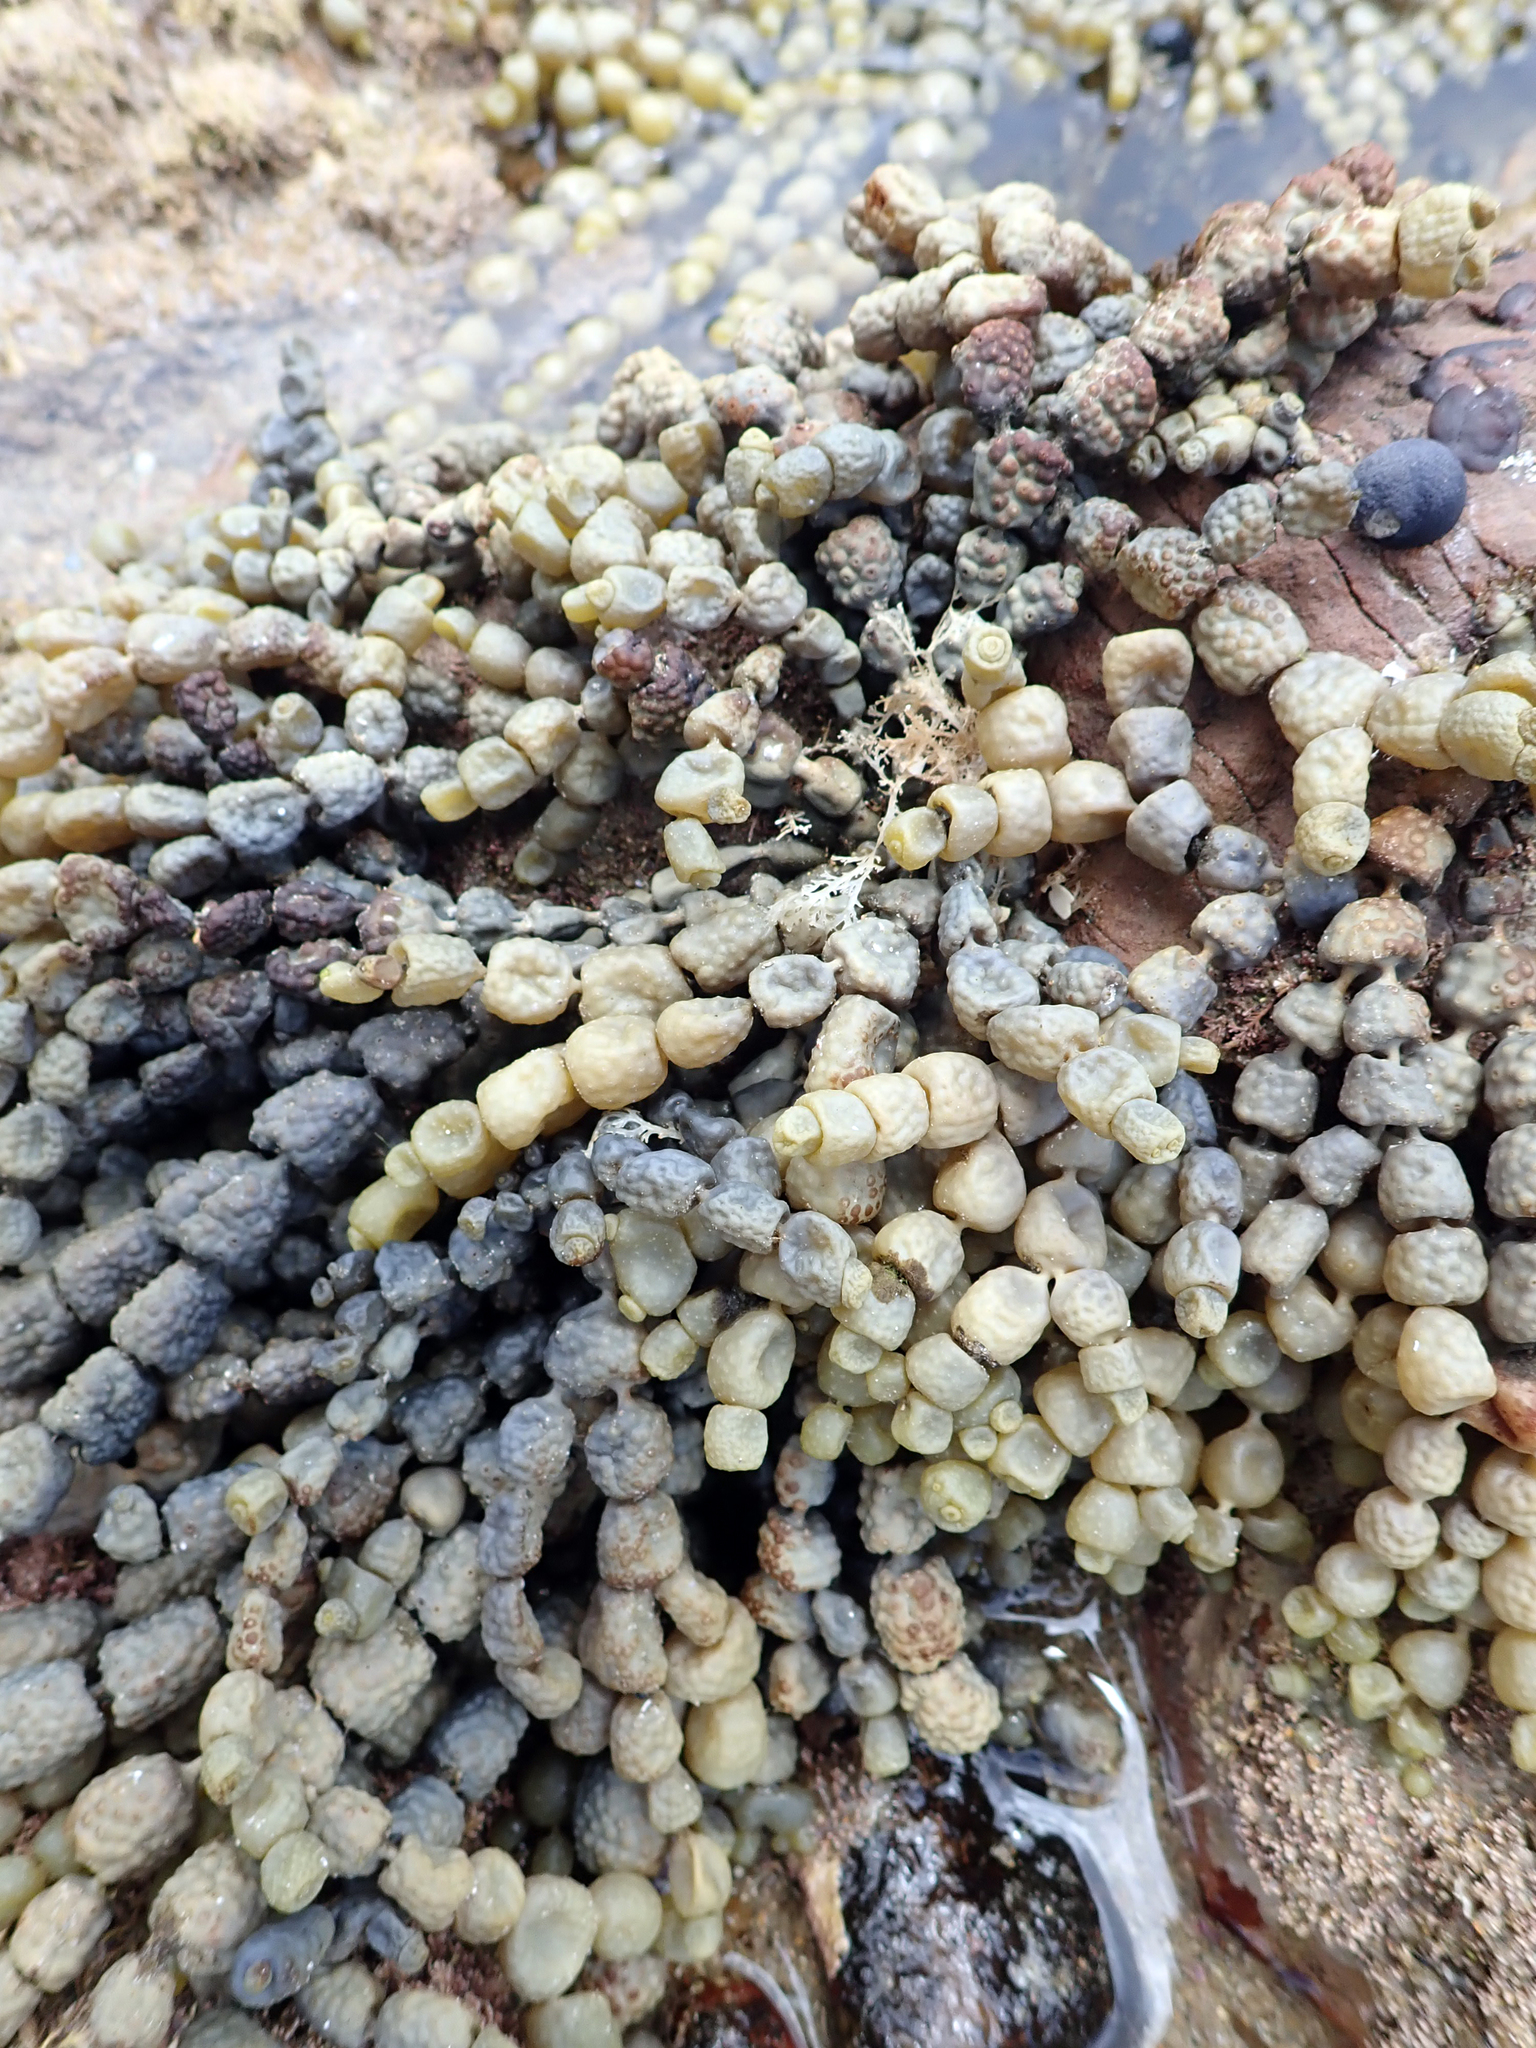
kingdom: Chromista
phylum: Ochrophyta
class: Phaeophyceae
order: Fucales
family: Hormosiraceae
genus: Hormosira
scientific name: Hormosira banksii
